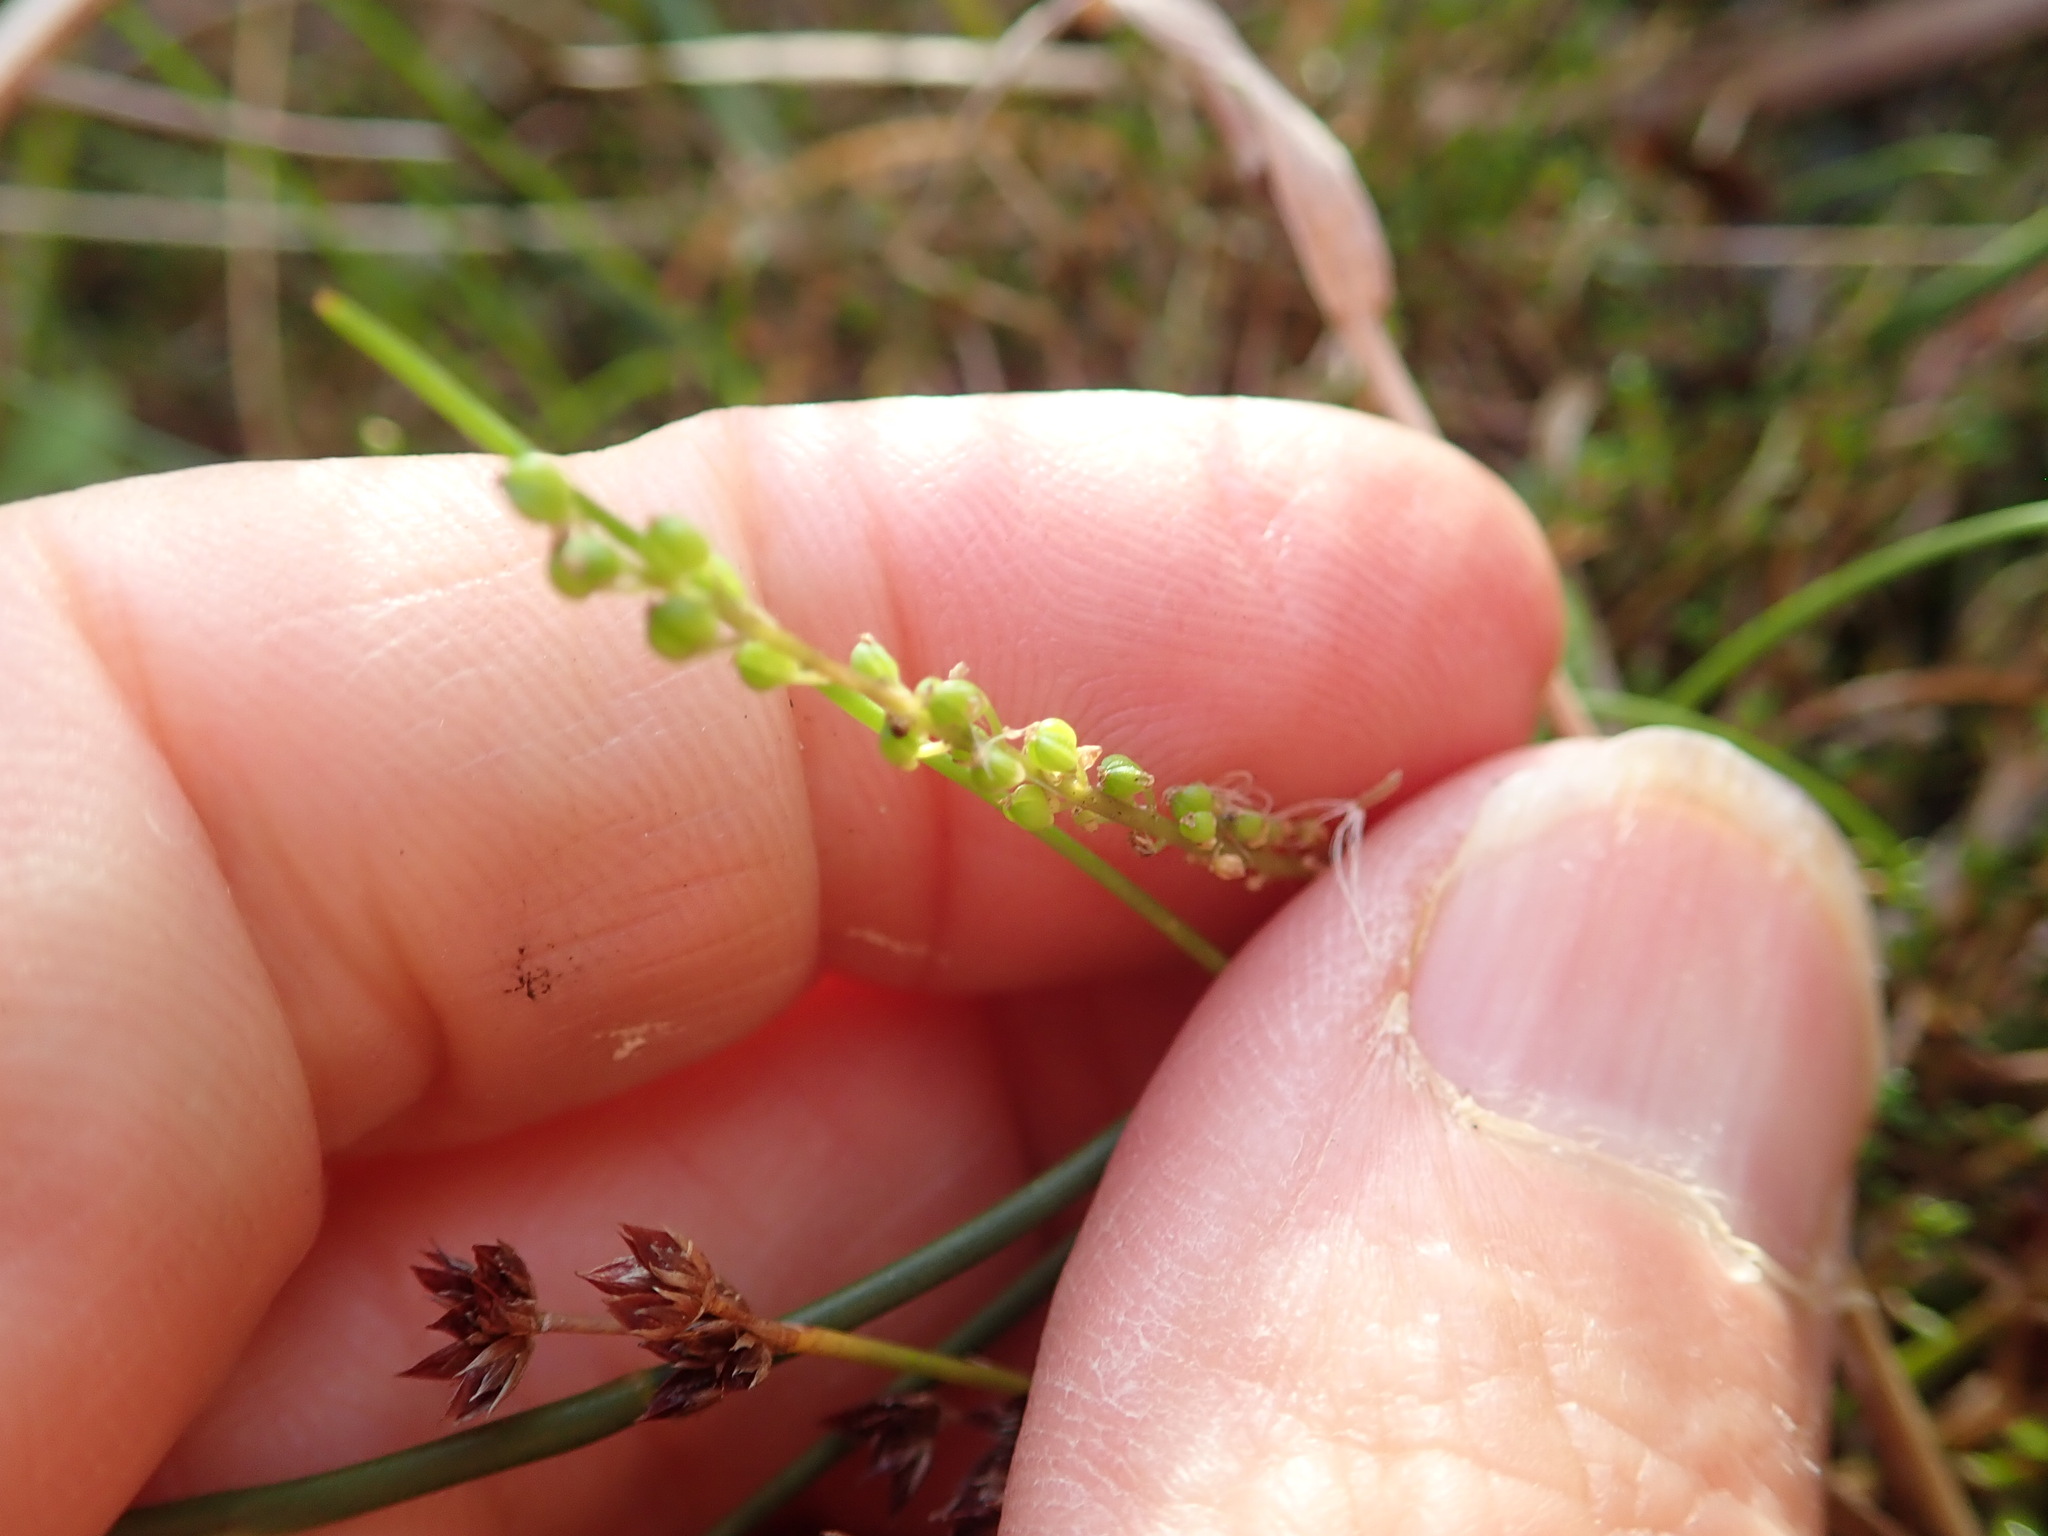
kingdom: Plantae
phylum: Tracheophyta
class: Liliopsida
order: Alismatales
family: Juncaginaceae
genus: Triglochin
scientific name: Triglochin striata
